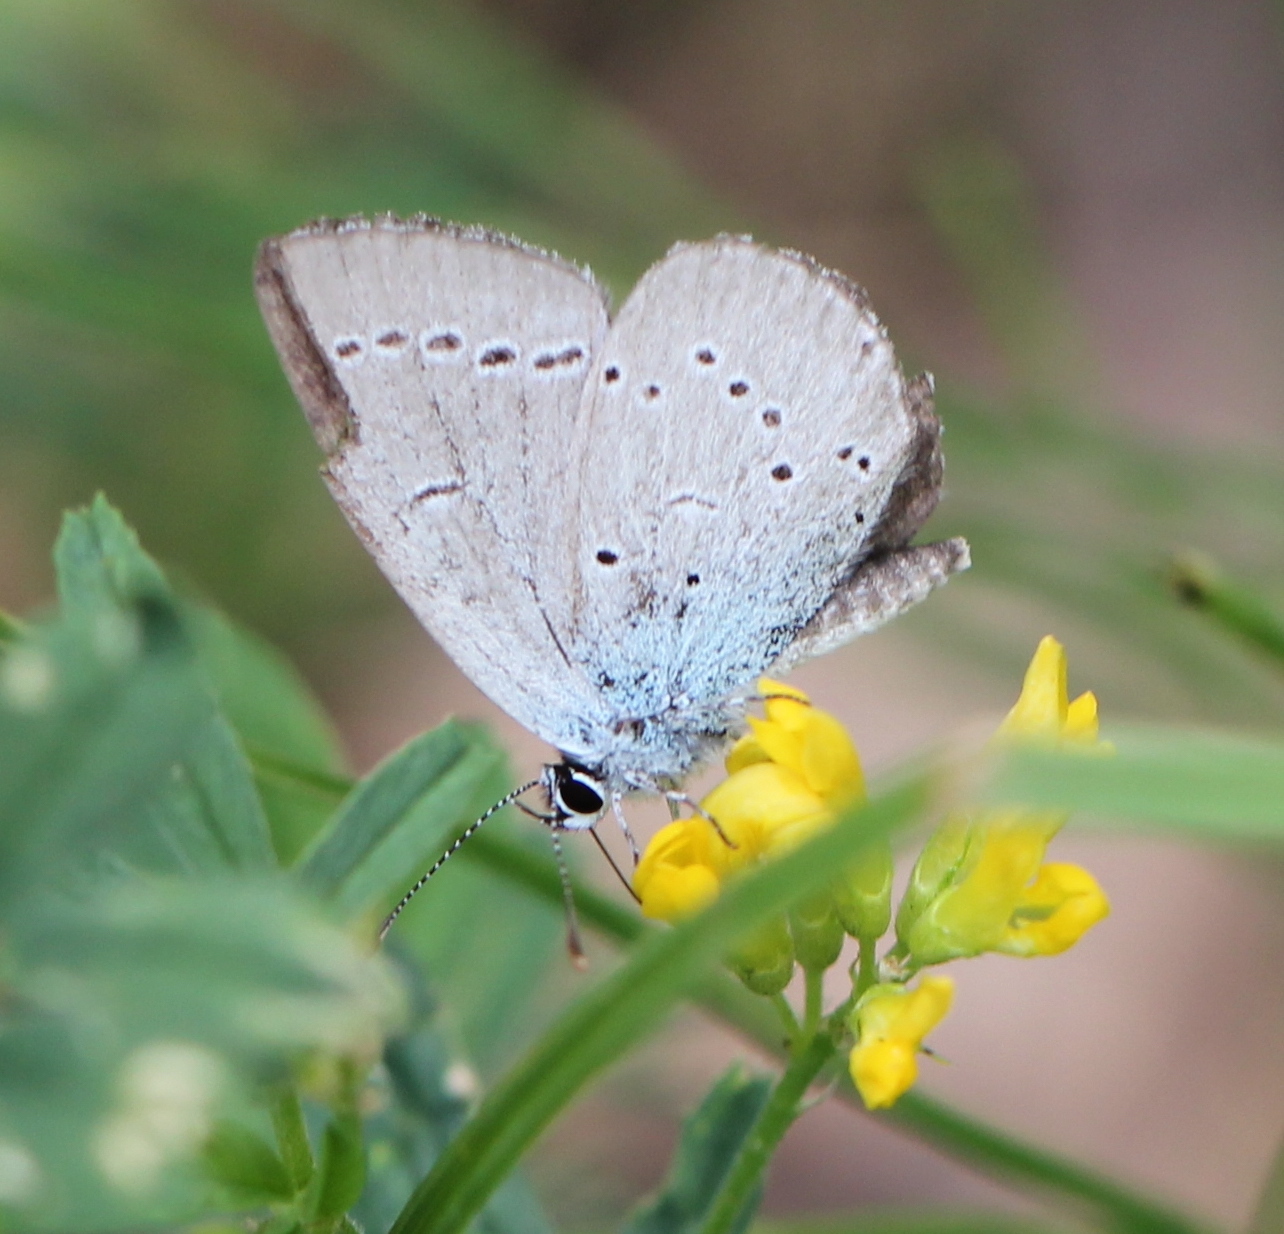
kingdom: Animalia
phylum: Arthropoda
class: Insecta
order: Lepidoptera
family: Lycaenidae
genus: Cupido
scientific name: Cupido minimus
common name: Small blue
